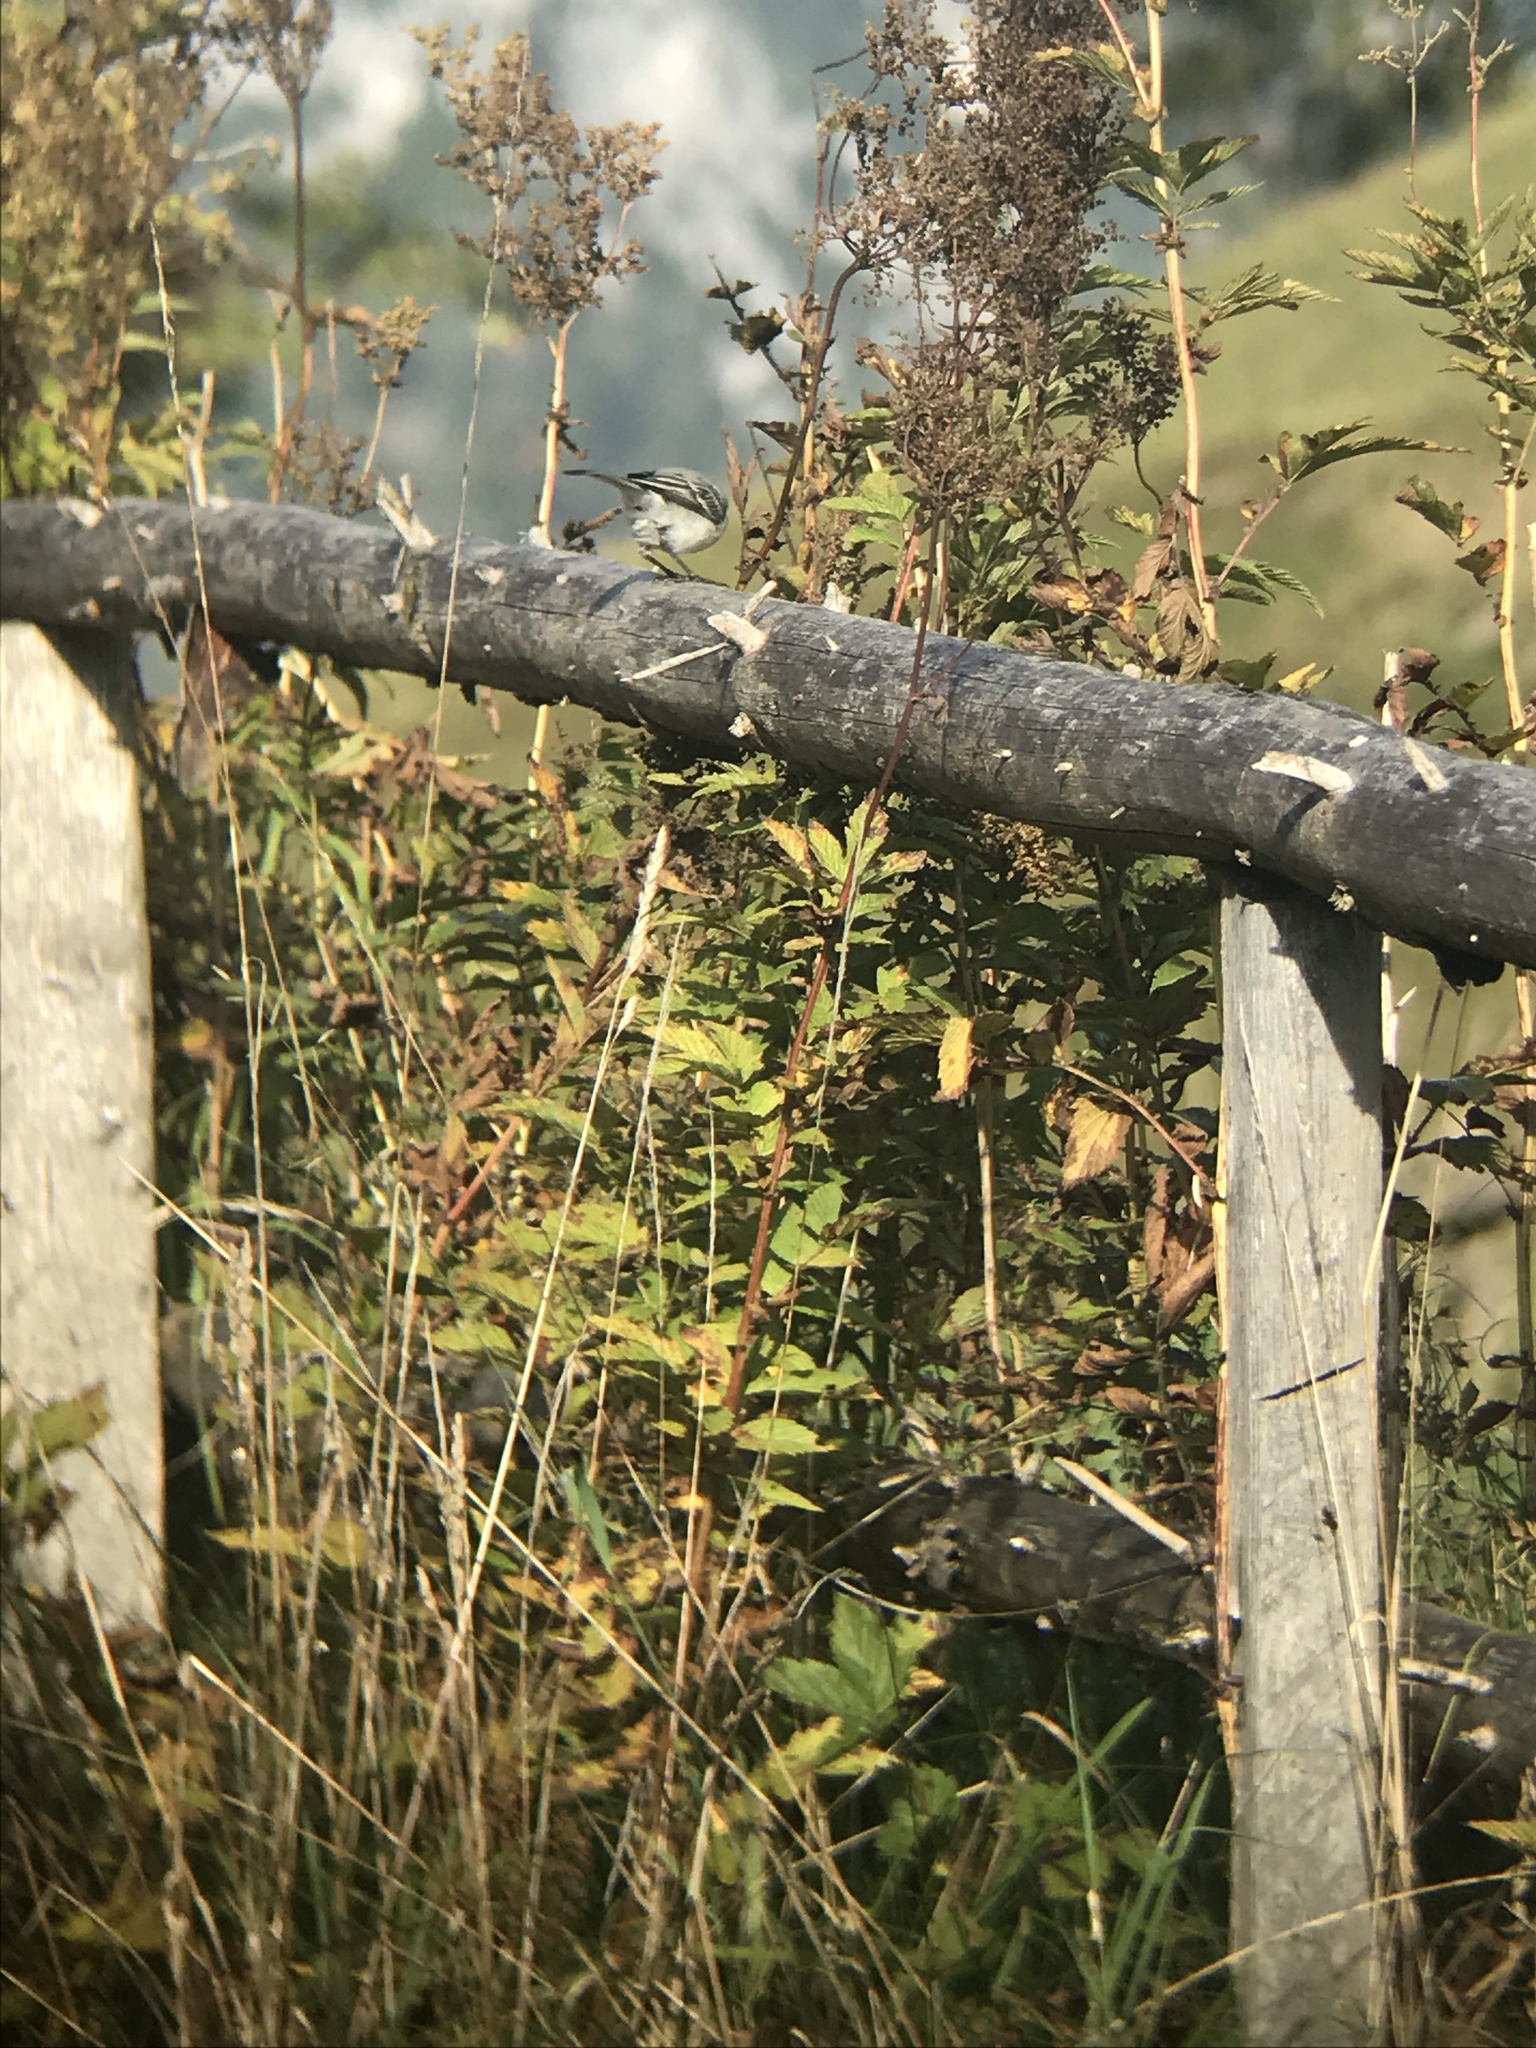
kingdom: Animalia
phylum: Chordata
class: Aves
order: Passeriformes
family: Motacillidae
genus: Motacilla
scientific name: Motacilla alba
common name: White wagtail
